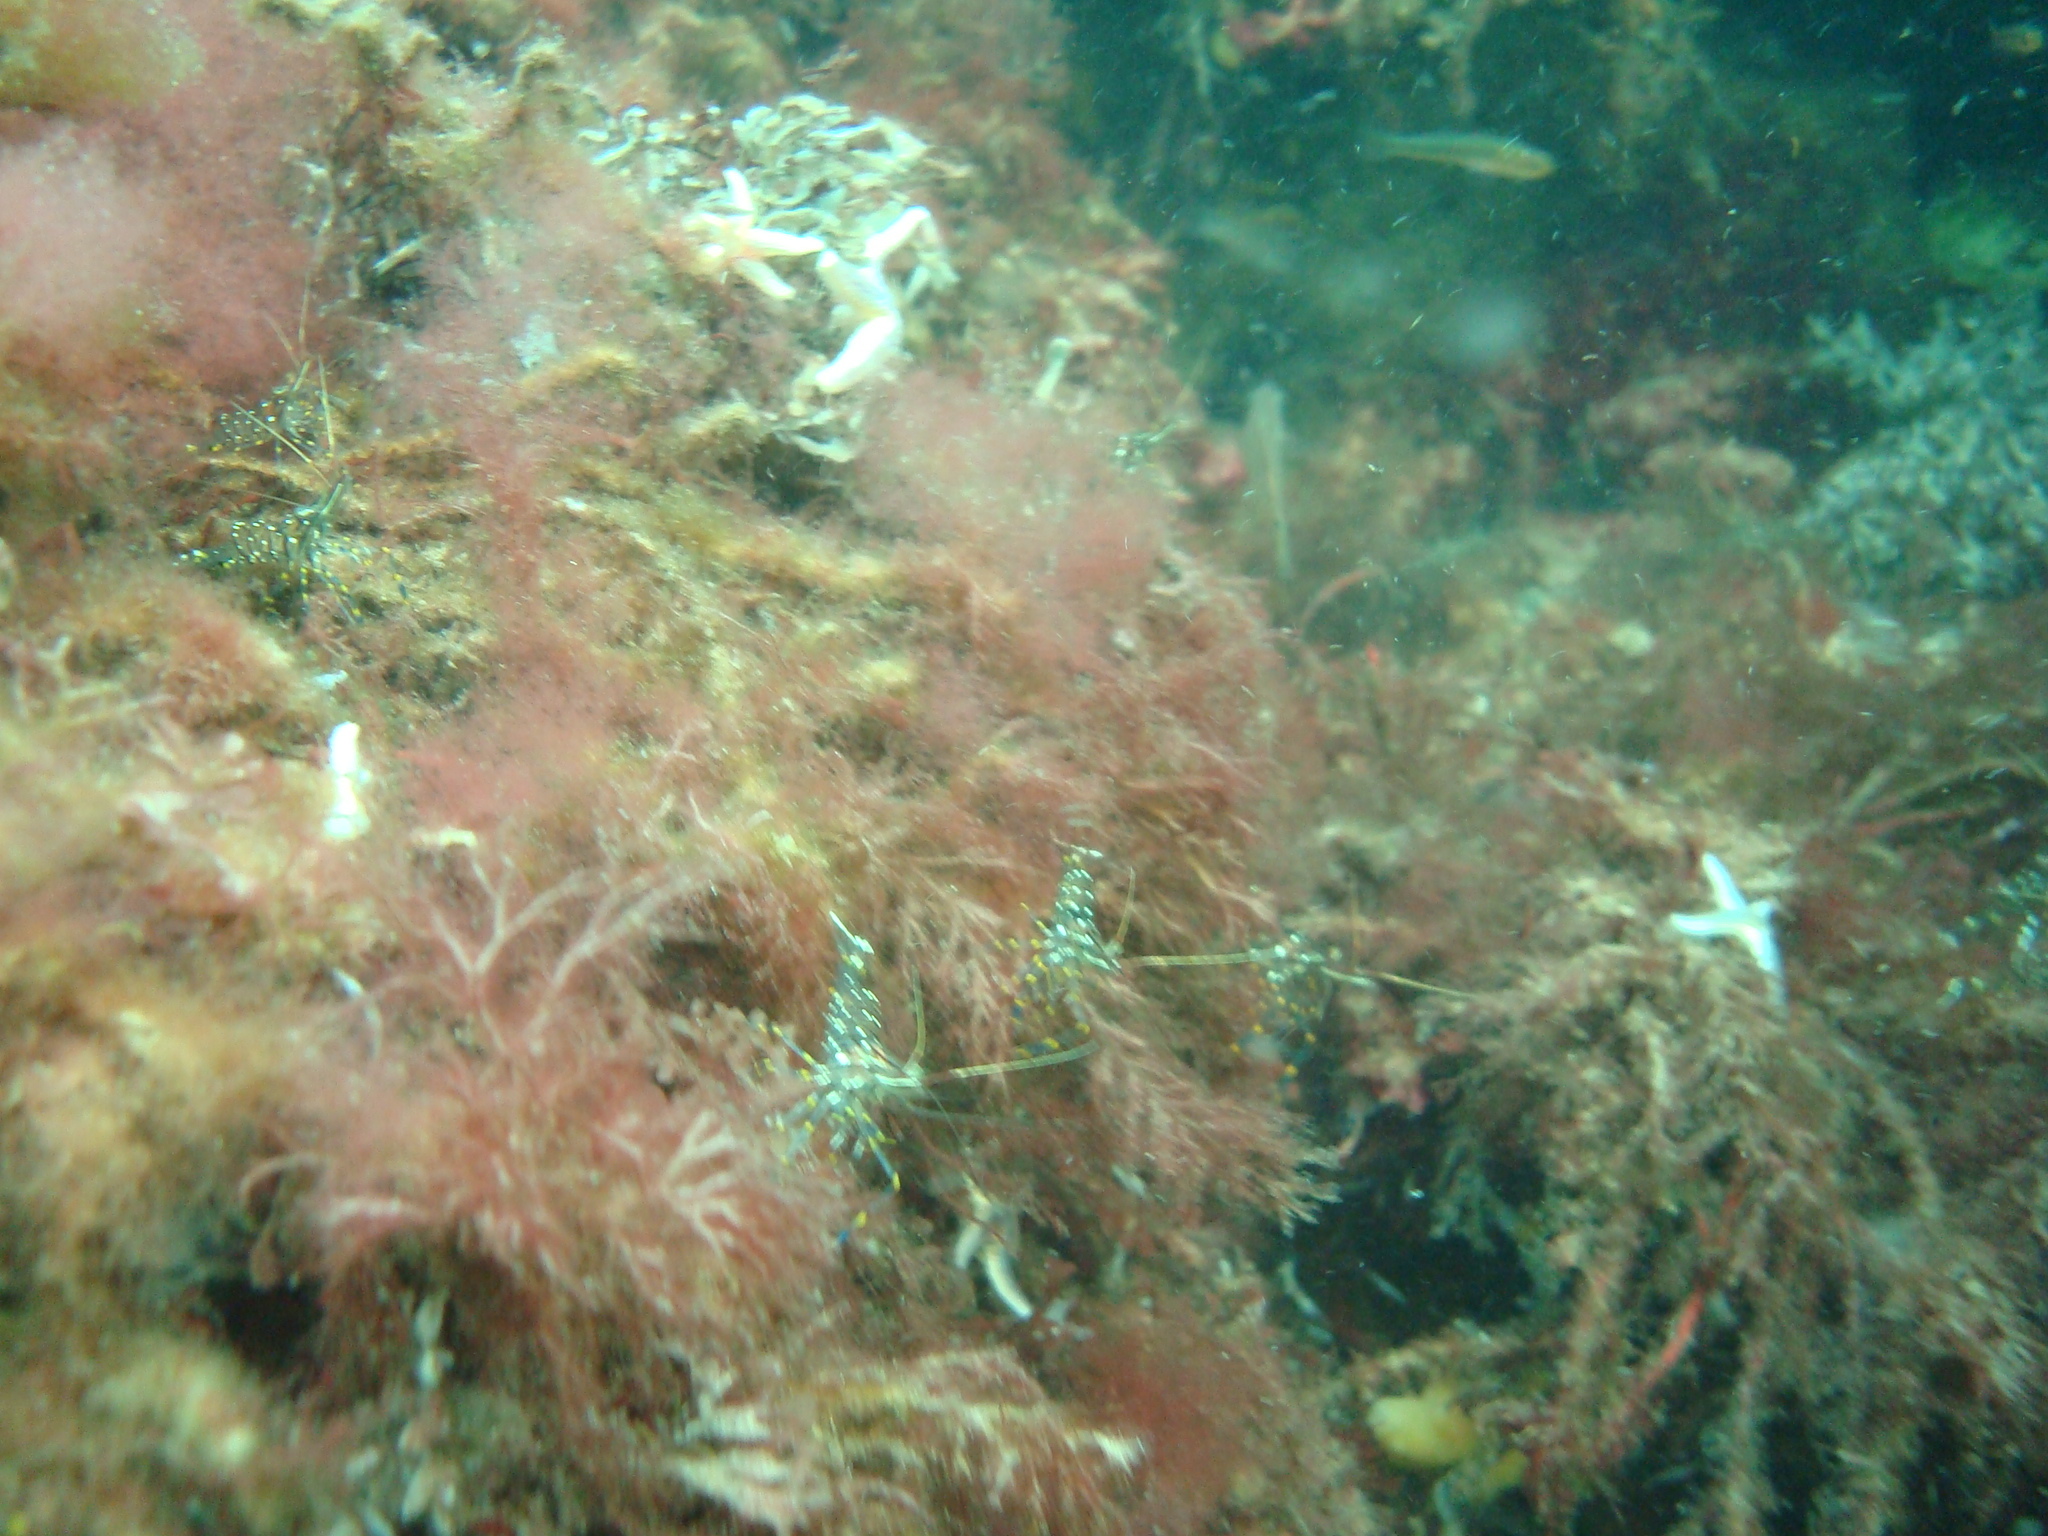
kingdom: Animalia
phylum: Arthropoda
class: Malacostraca
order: Decapoda
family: Palaemonidae
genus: Palaemon
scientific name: Palaemon elegans
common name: Grass prawm
